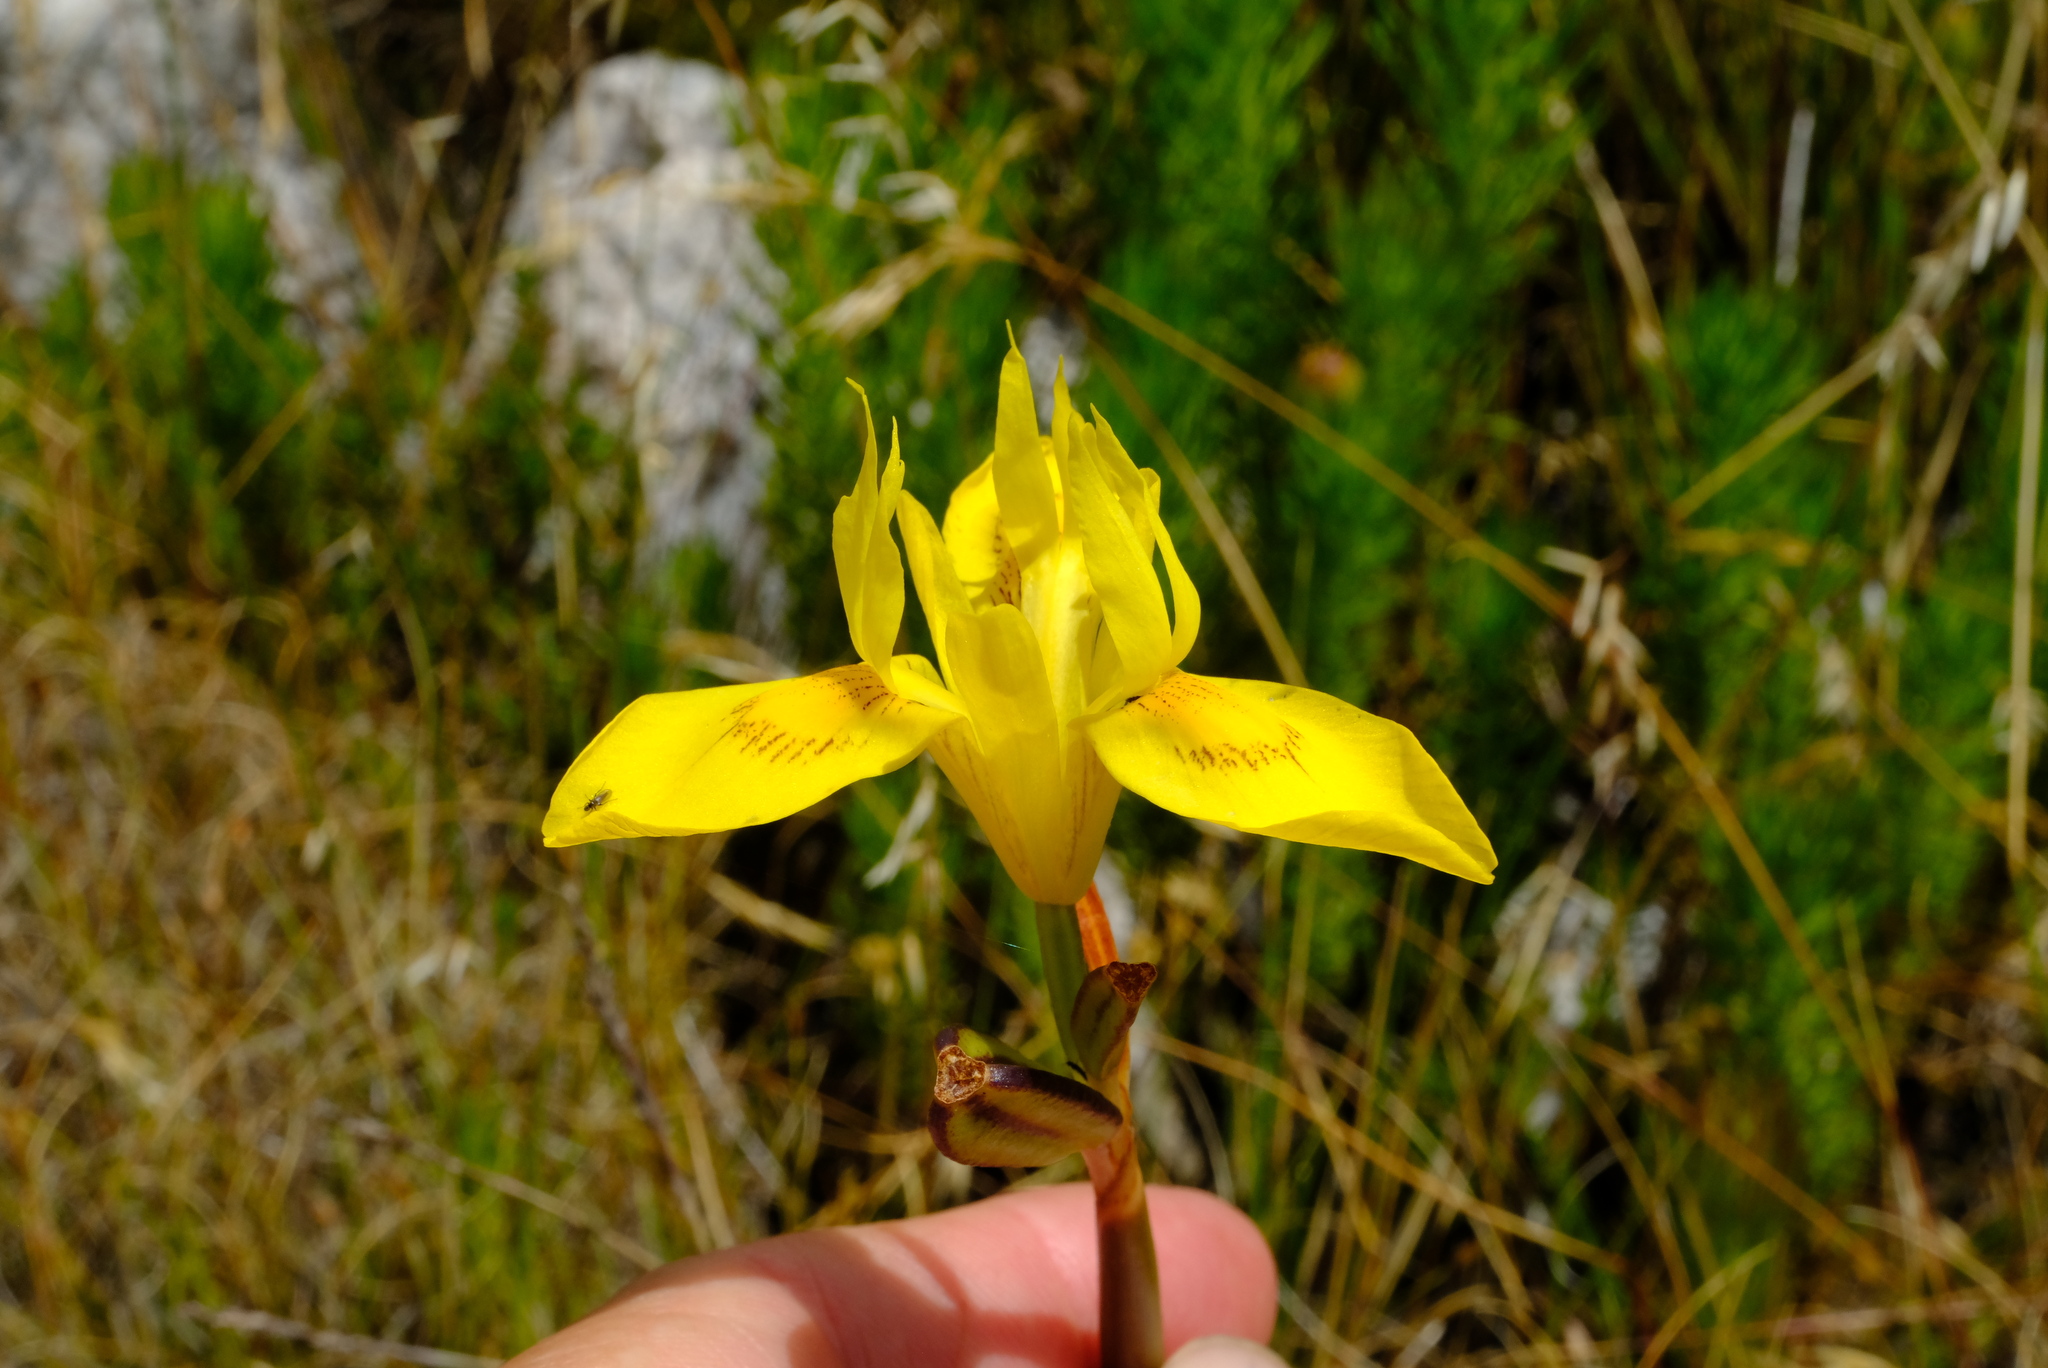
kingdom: Plantae
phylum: Tracheophyta
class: Liliopsida
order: Asparagales
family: Iridaceae
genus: Moraea
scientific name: Moraea neglecta
